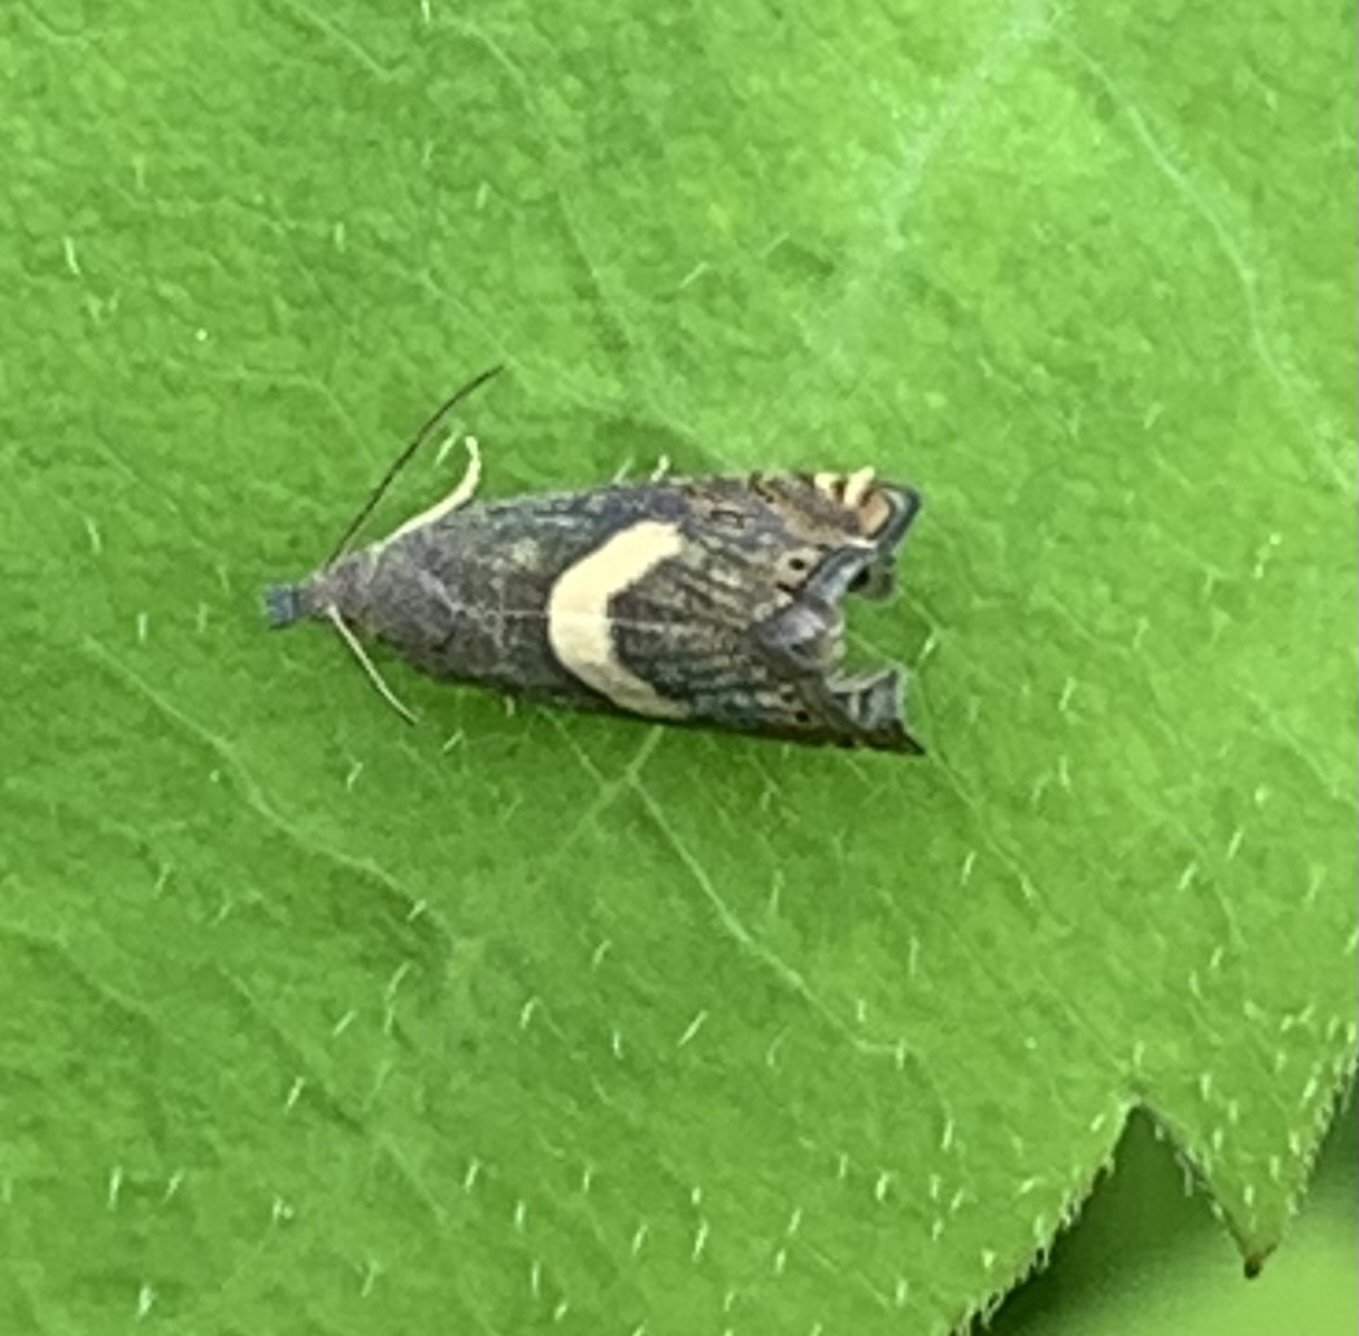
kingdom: Animalia
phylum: Arthropoda
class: Insecta
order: Lepidoptera
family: Glyphipterigidae
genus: Glyphipterix
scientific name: Glyphipterix Diploschizia impigritella
